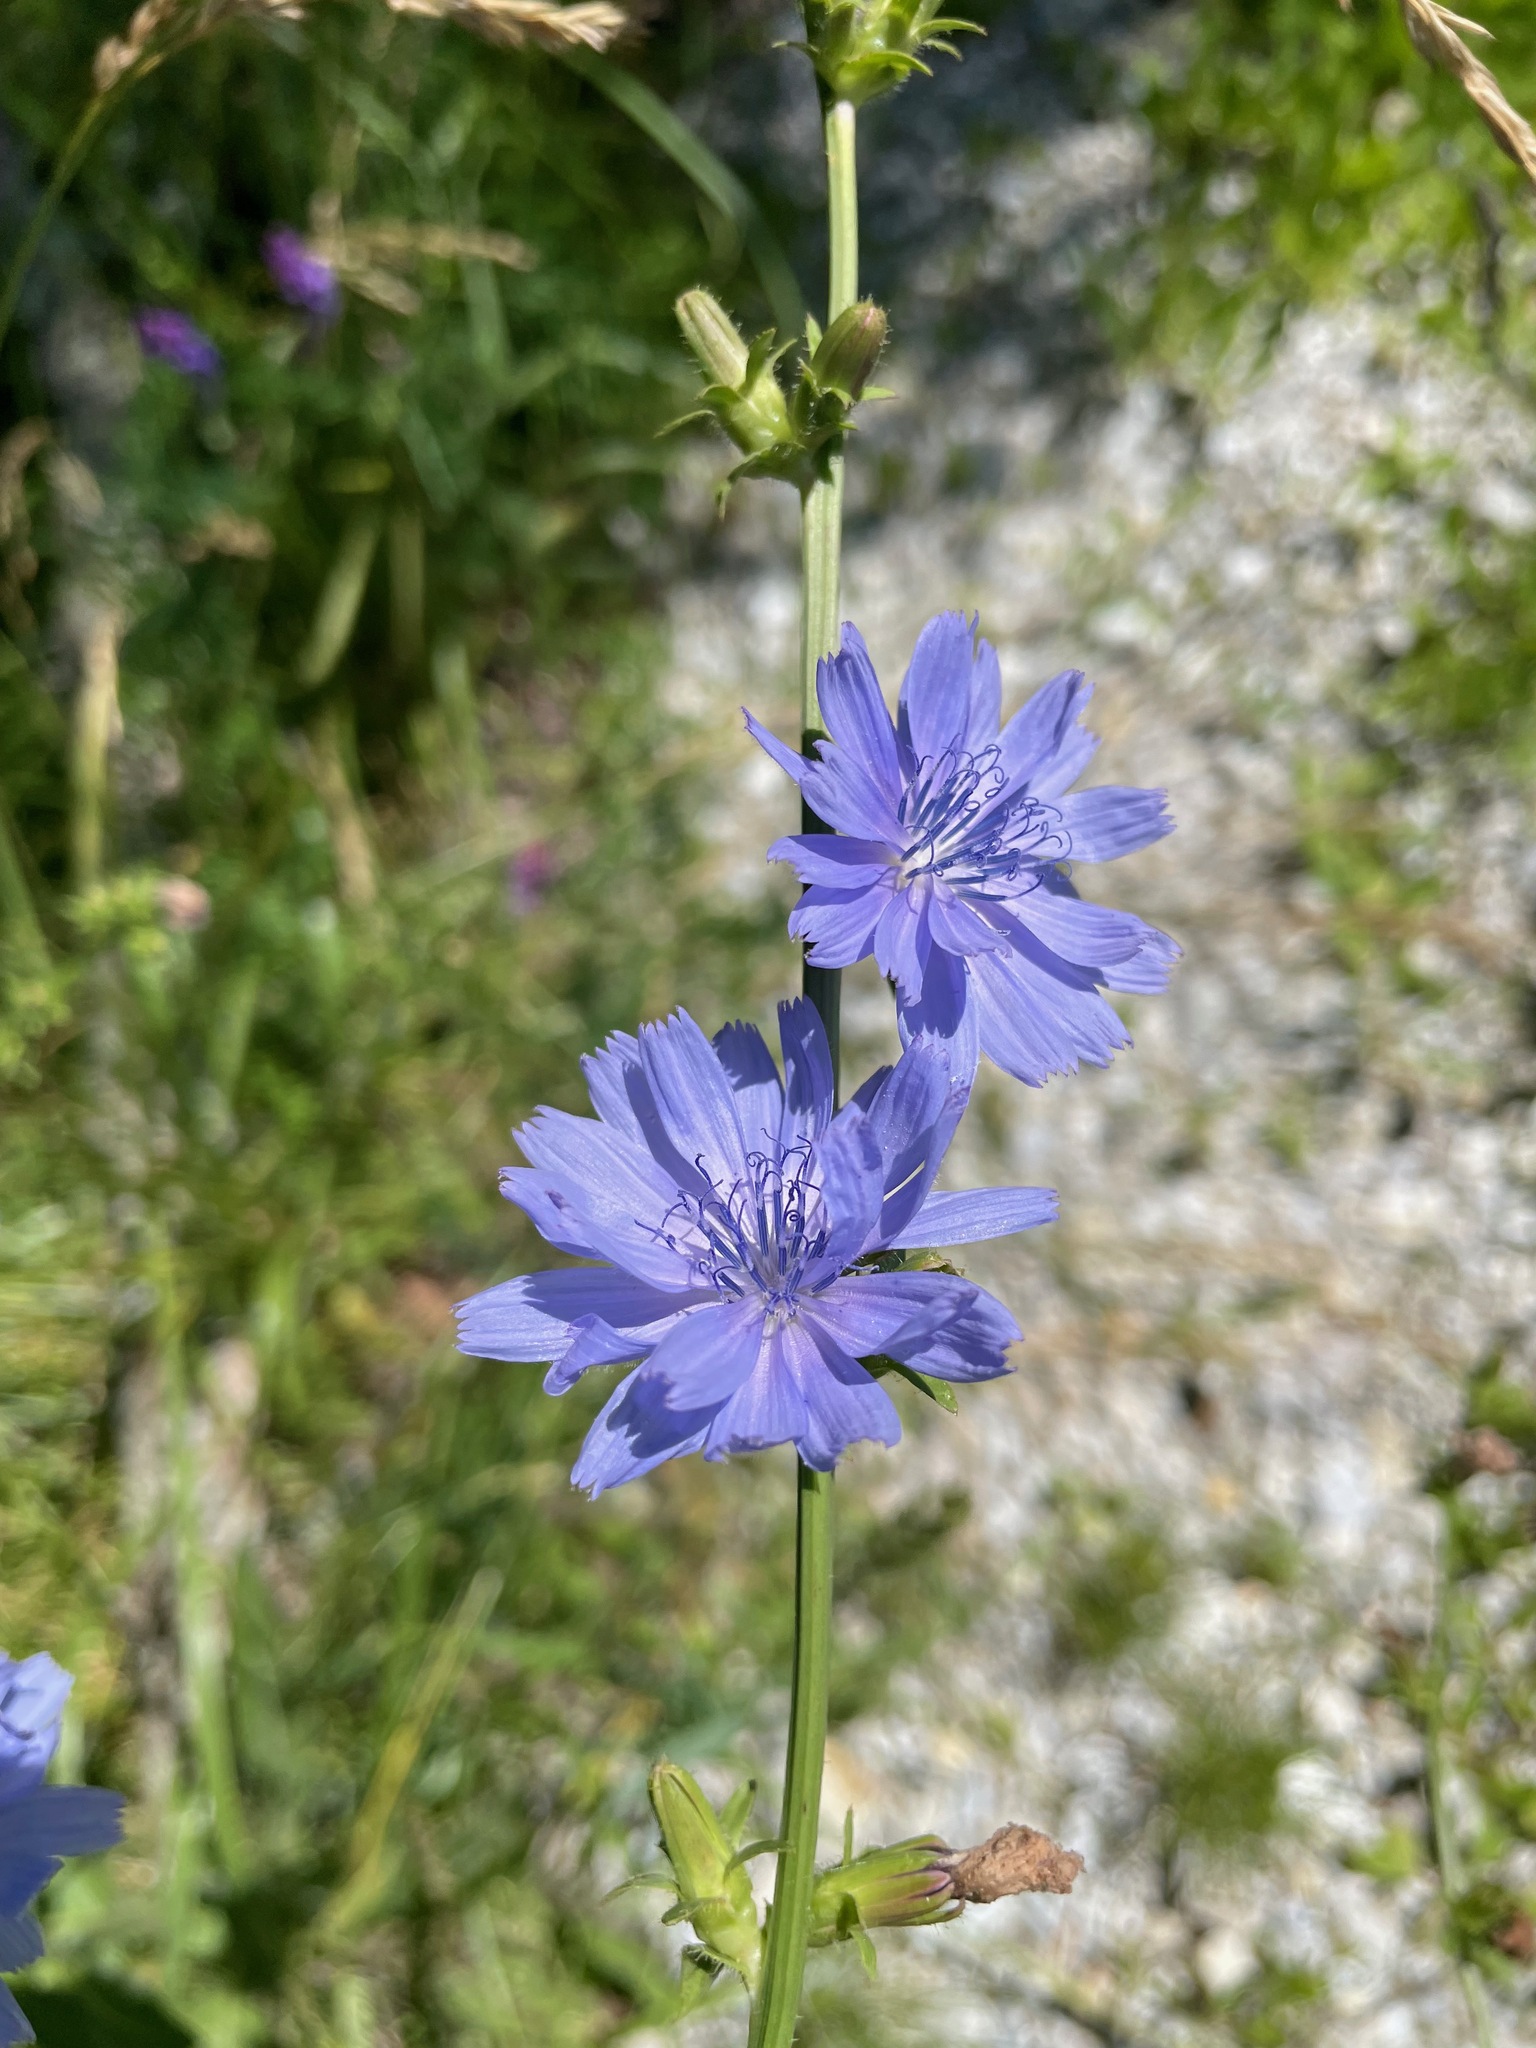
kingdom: Plantae
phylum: Tracheophyta
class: Magnoliopsida
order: Asterales
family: Asteraceae
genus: Cichorium
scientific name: Cichorium intybus
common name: Chicory
